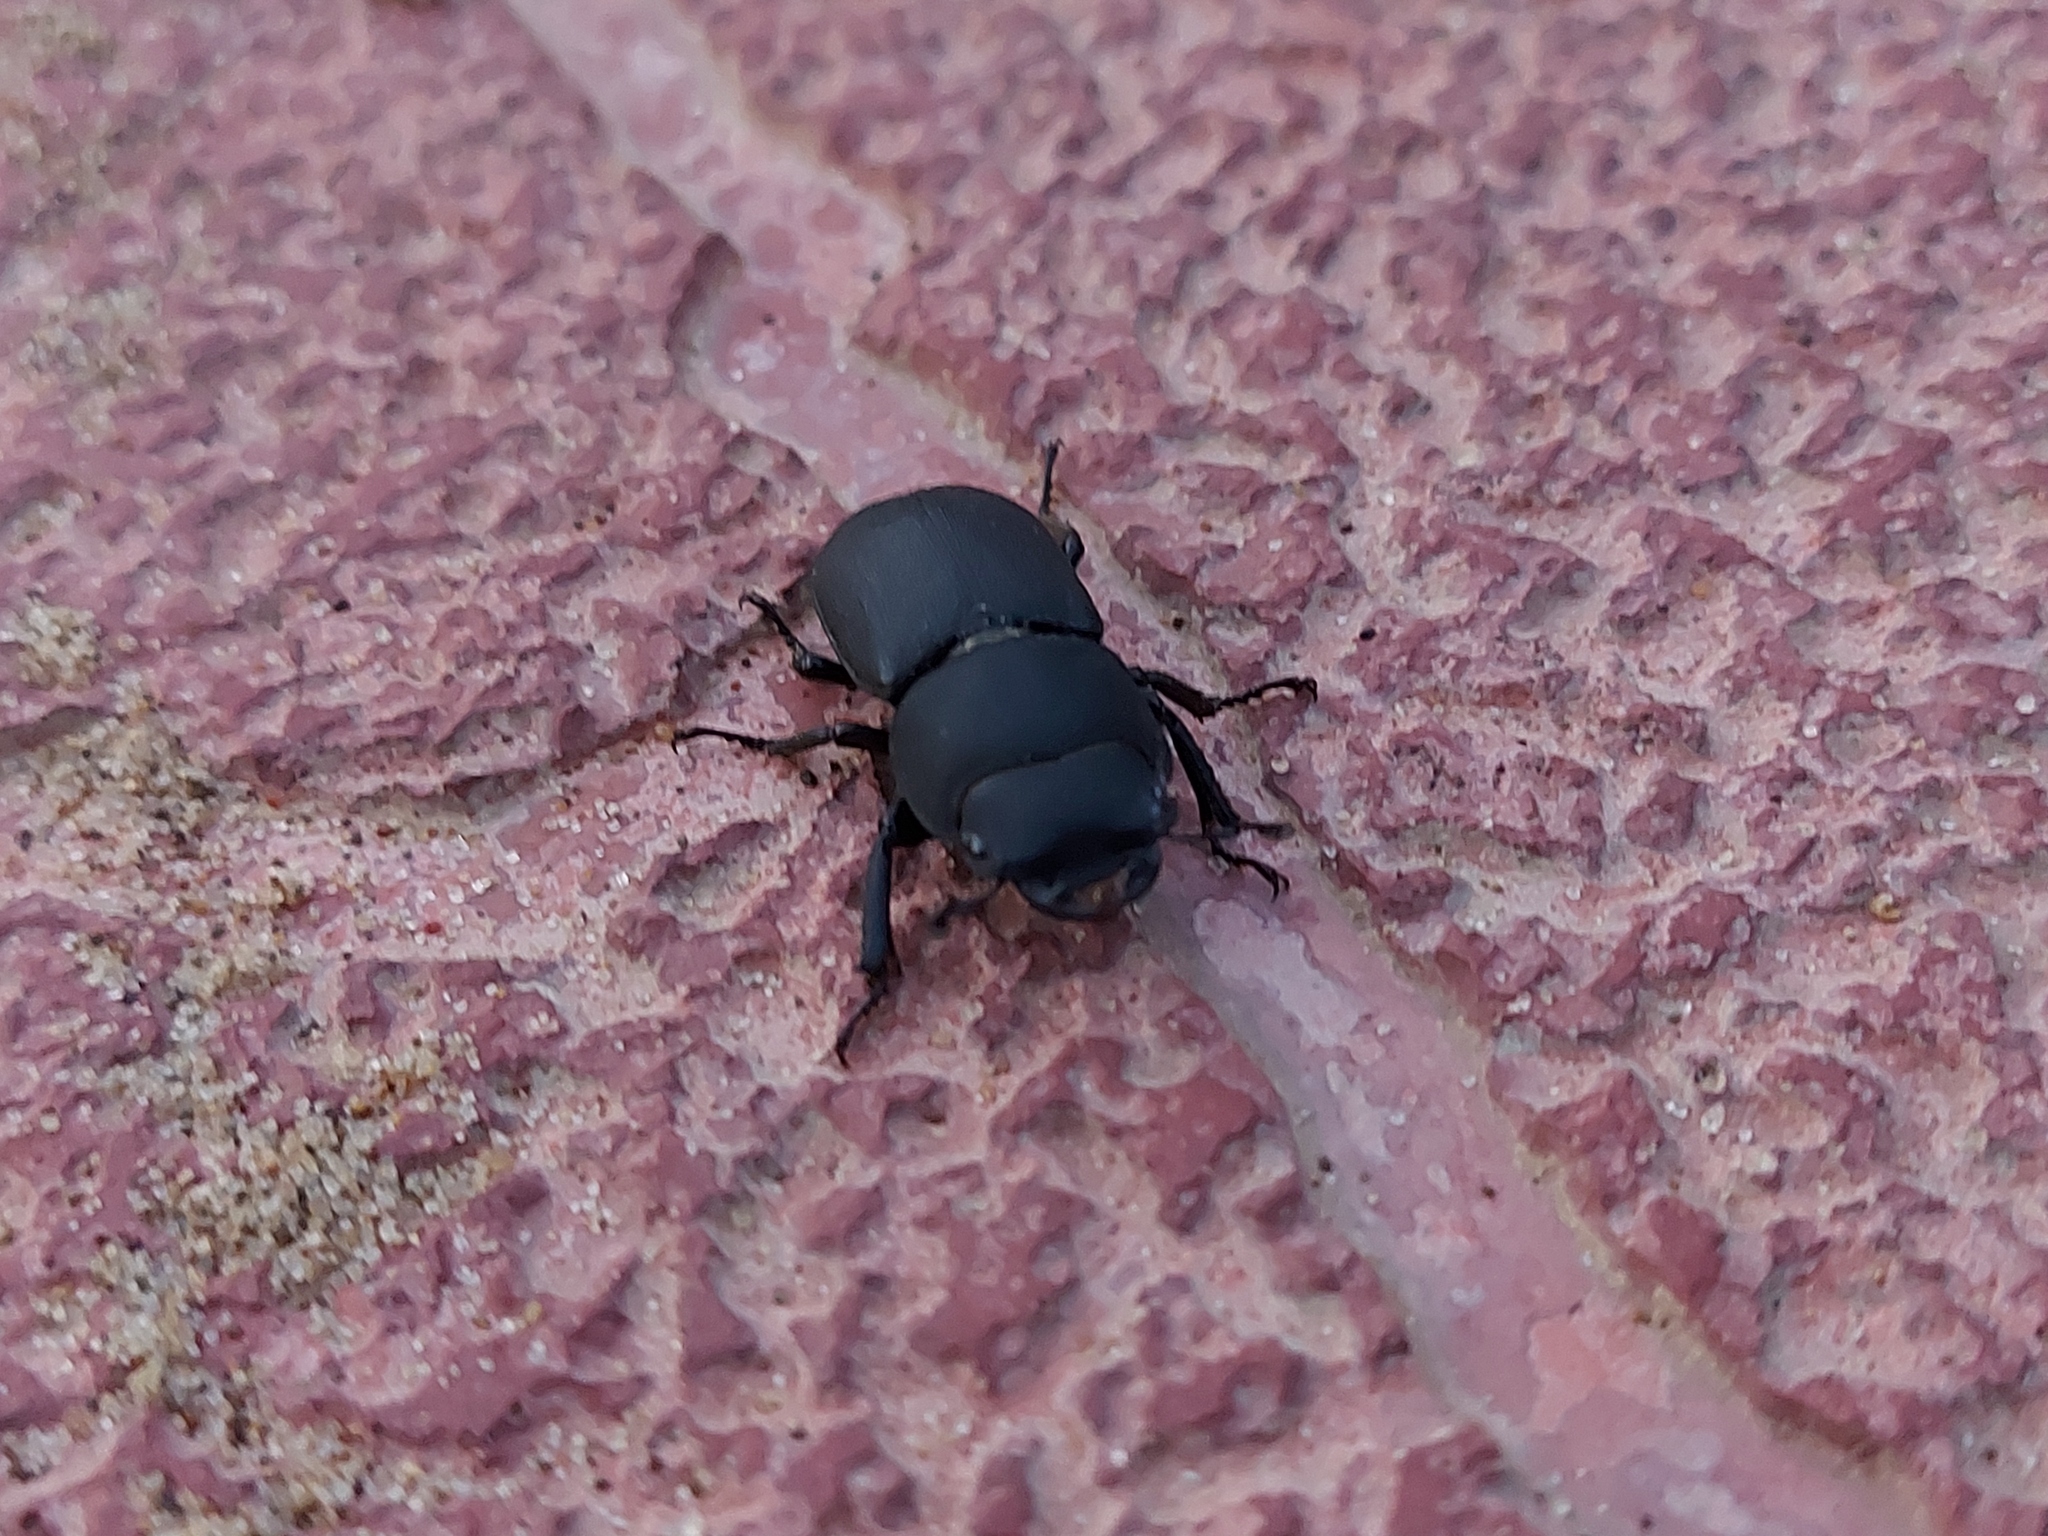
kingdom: Animalia
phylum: Arthropoda
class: Insecta
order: Coleoptera
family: Lucanidae
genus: Dorcus
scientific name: Dorcus parallelipipedus
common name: Lesser stag beetle
